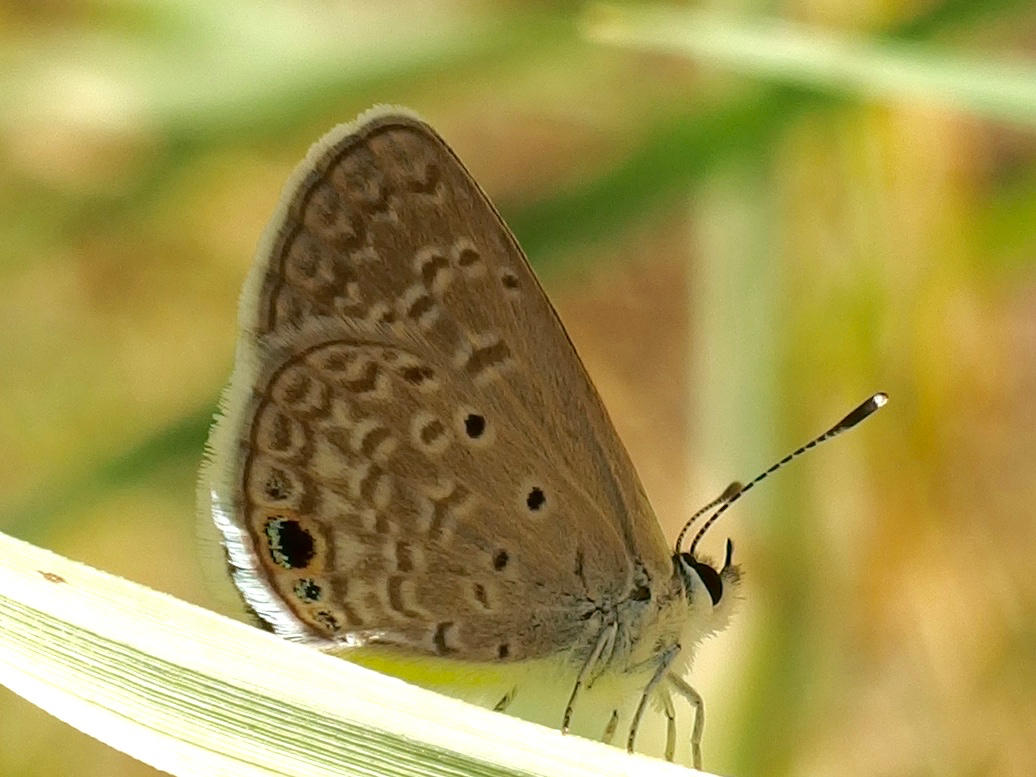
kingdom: Animalia
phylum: Arthropoda
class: Insecta
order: Lepidoptera
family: Lycaenidae
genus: Hemiargus
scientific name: Hemiargus ceraunus
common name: Ceraunus blue
